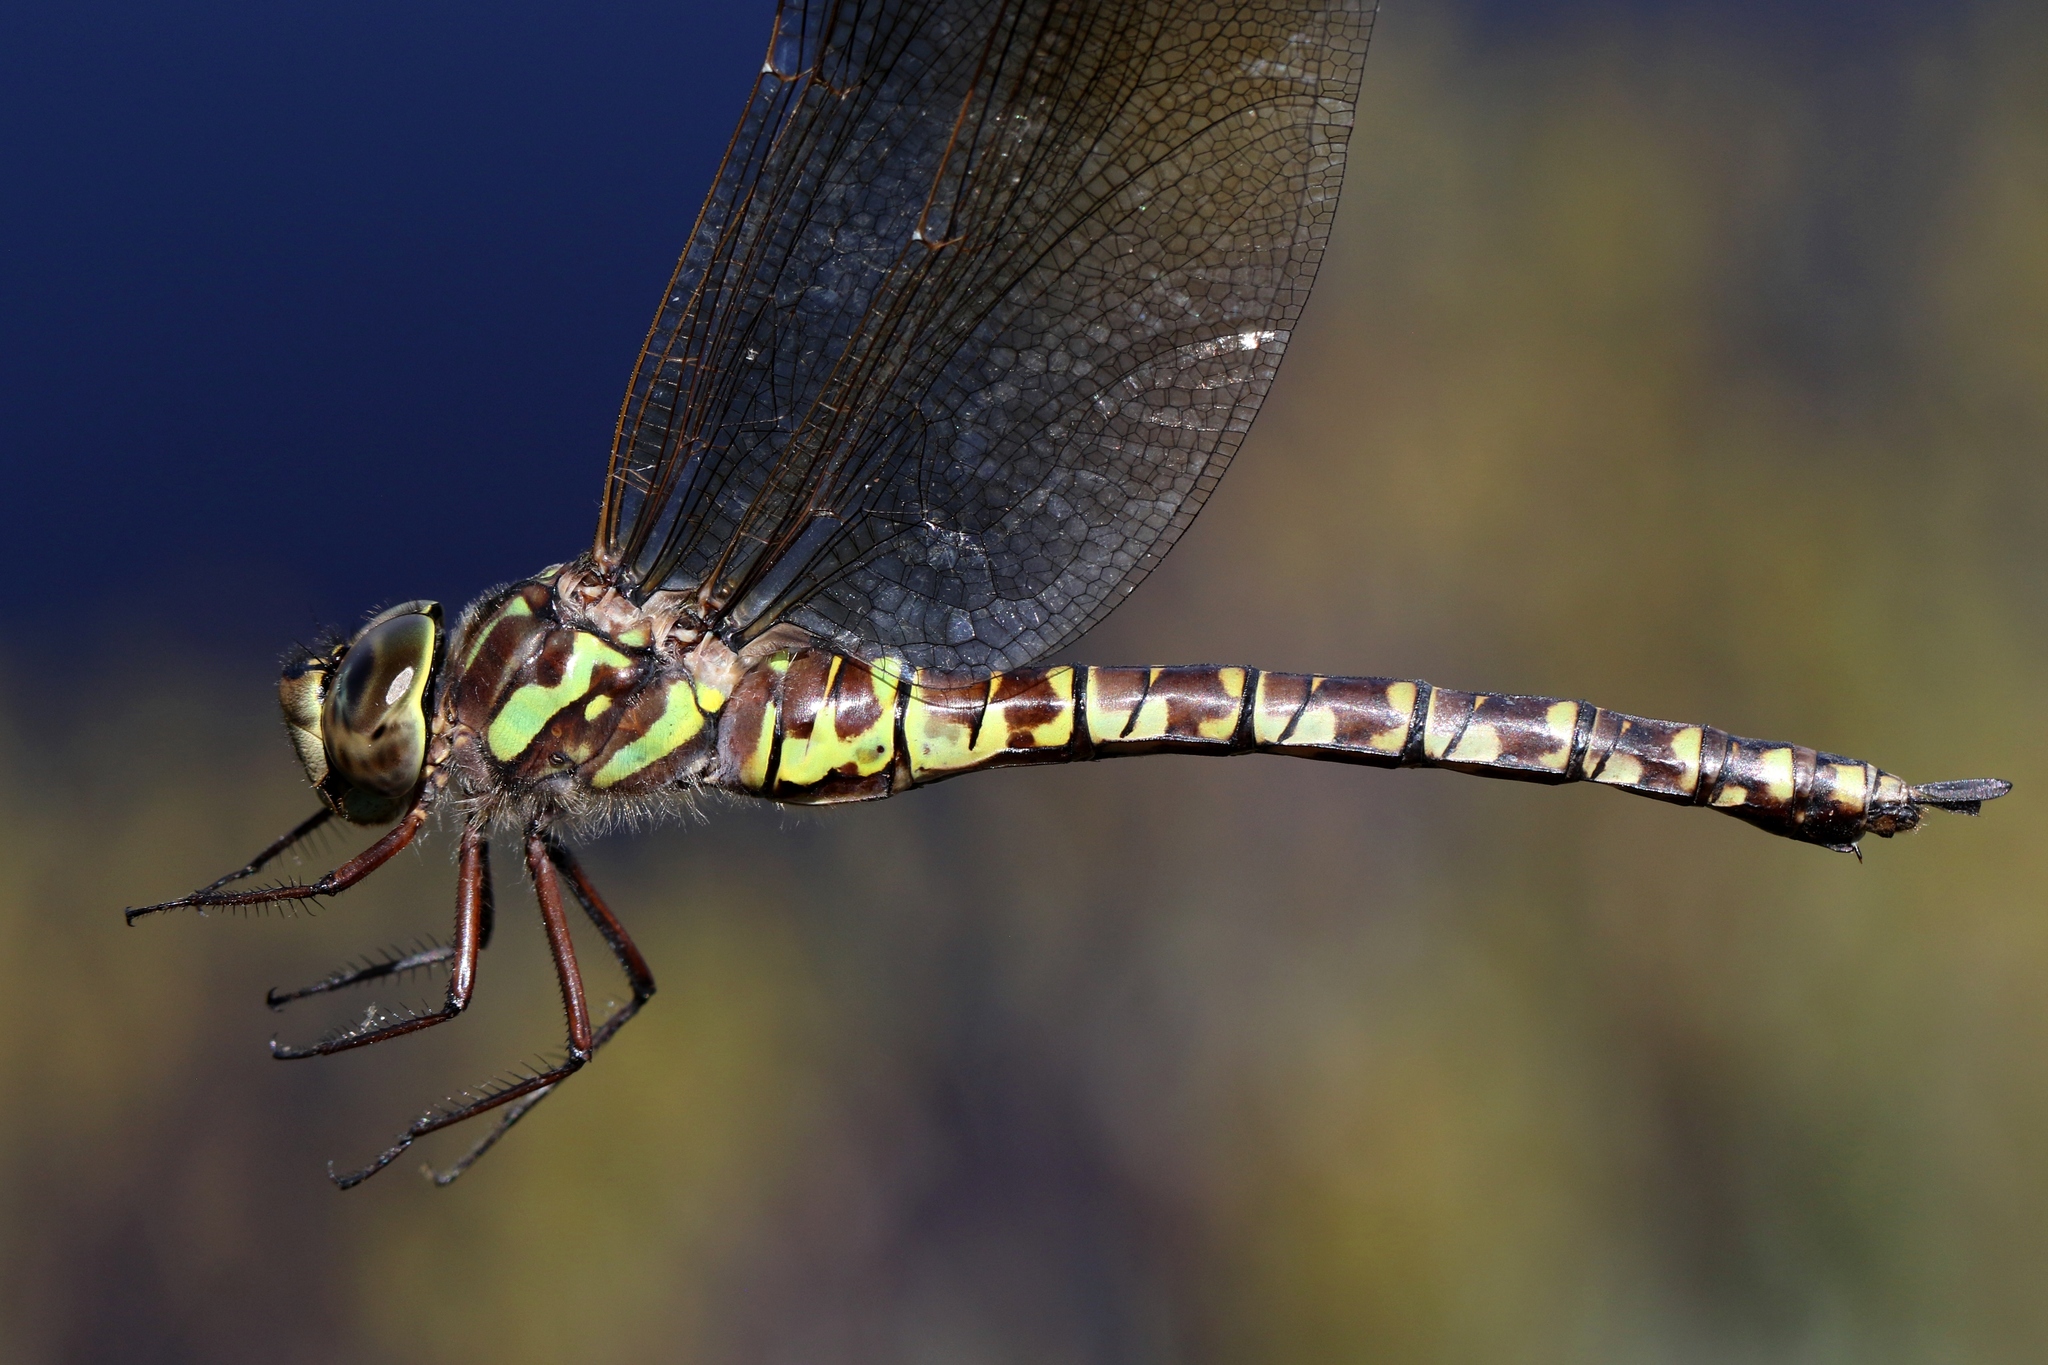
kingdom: Animalia
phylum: Arthropoda
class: Insecta
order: Odonata
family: Aeshnidae
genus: Aeshna
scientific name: Aeshna canadensis
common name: Canada darner
